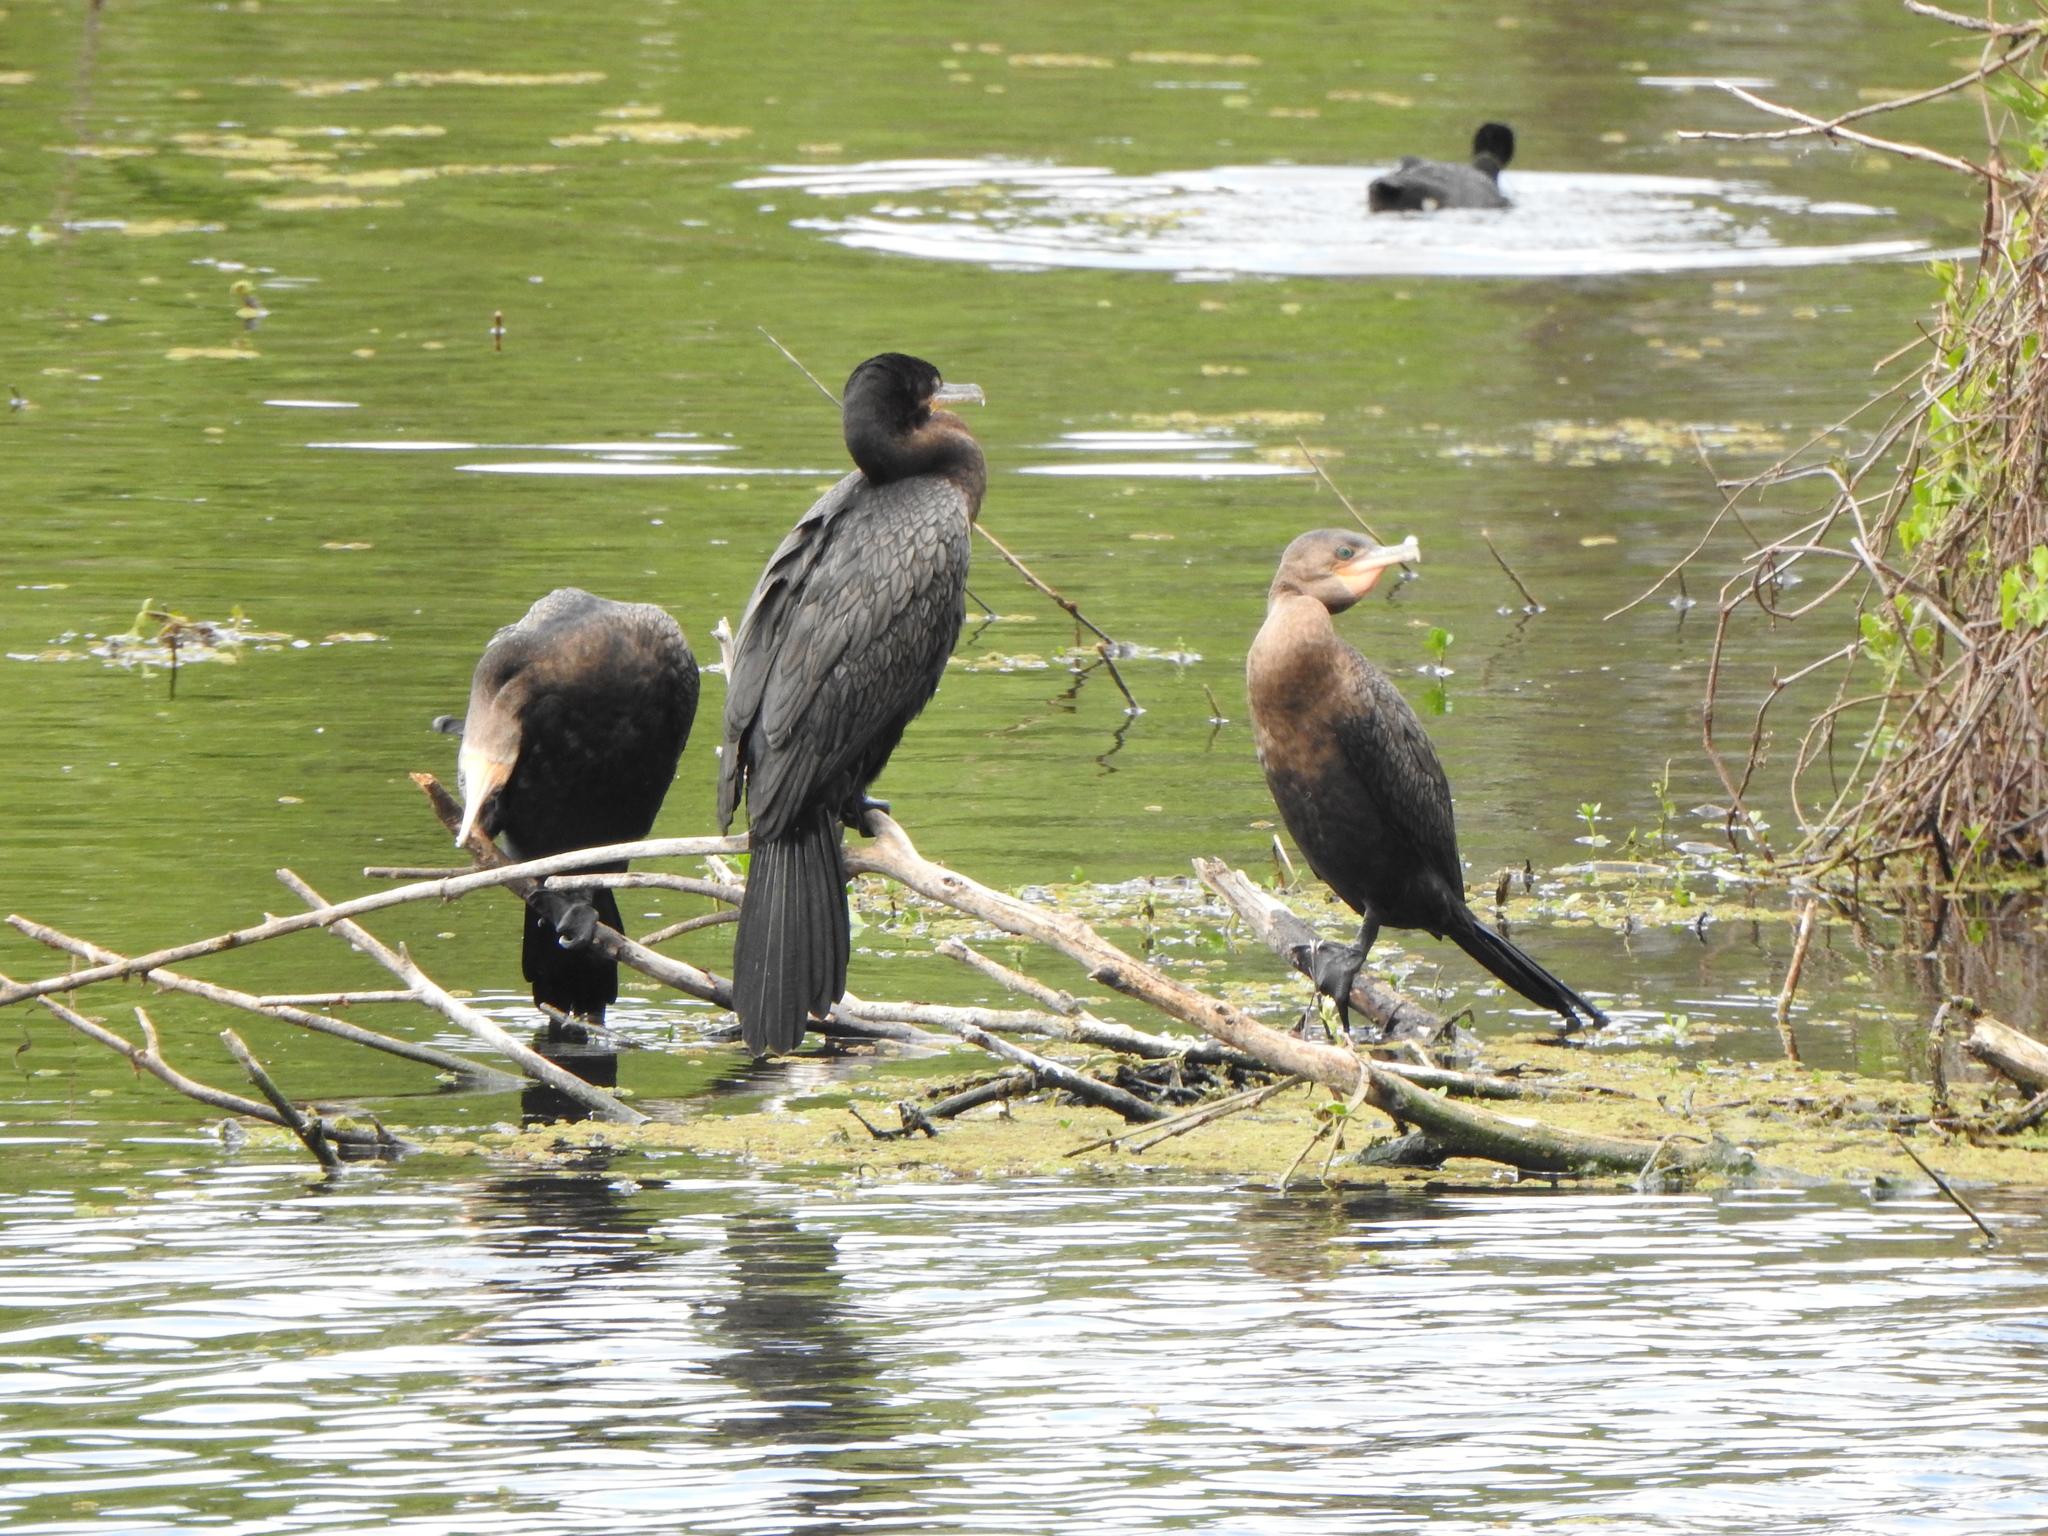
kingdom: Animalia
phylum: Chordata
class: Aves
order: Suliformes
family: Phalacrocoracidae
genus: Phalacrocorax
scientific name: Phalacrocorax brasilianus
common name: Neotropic cormorant
